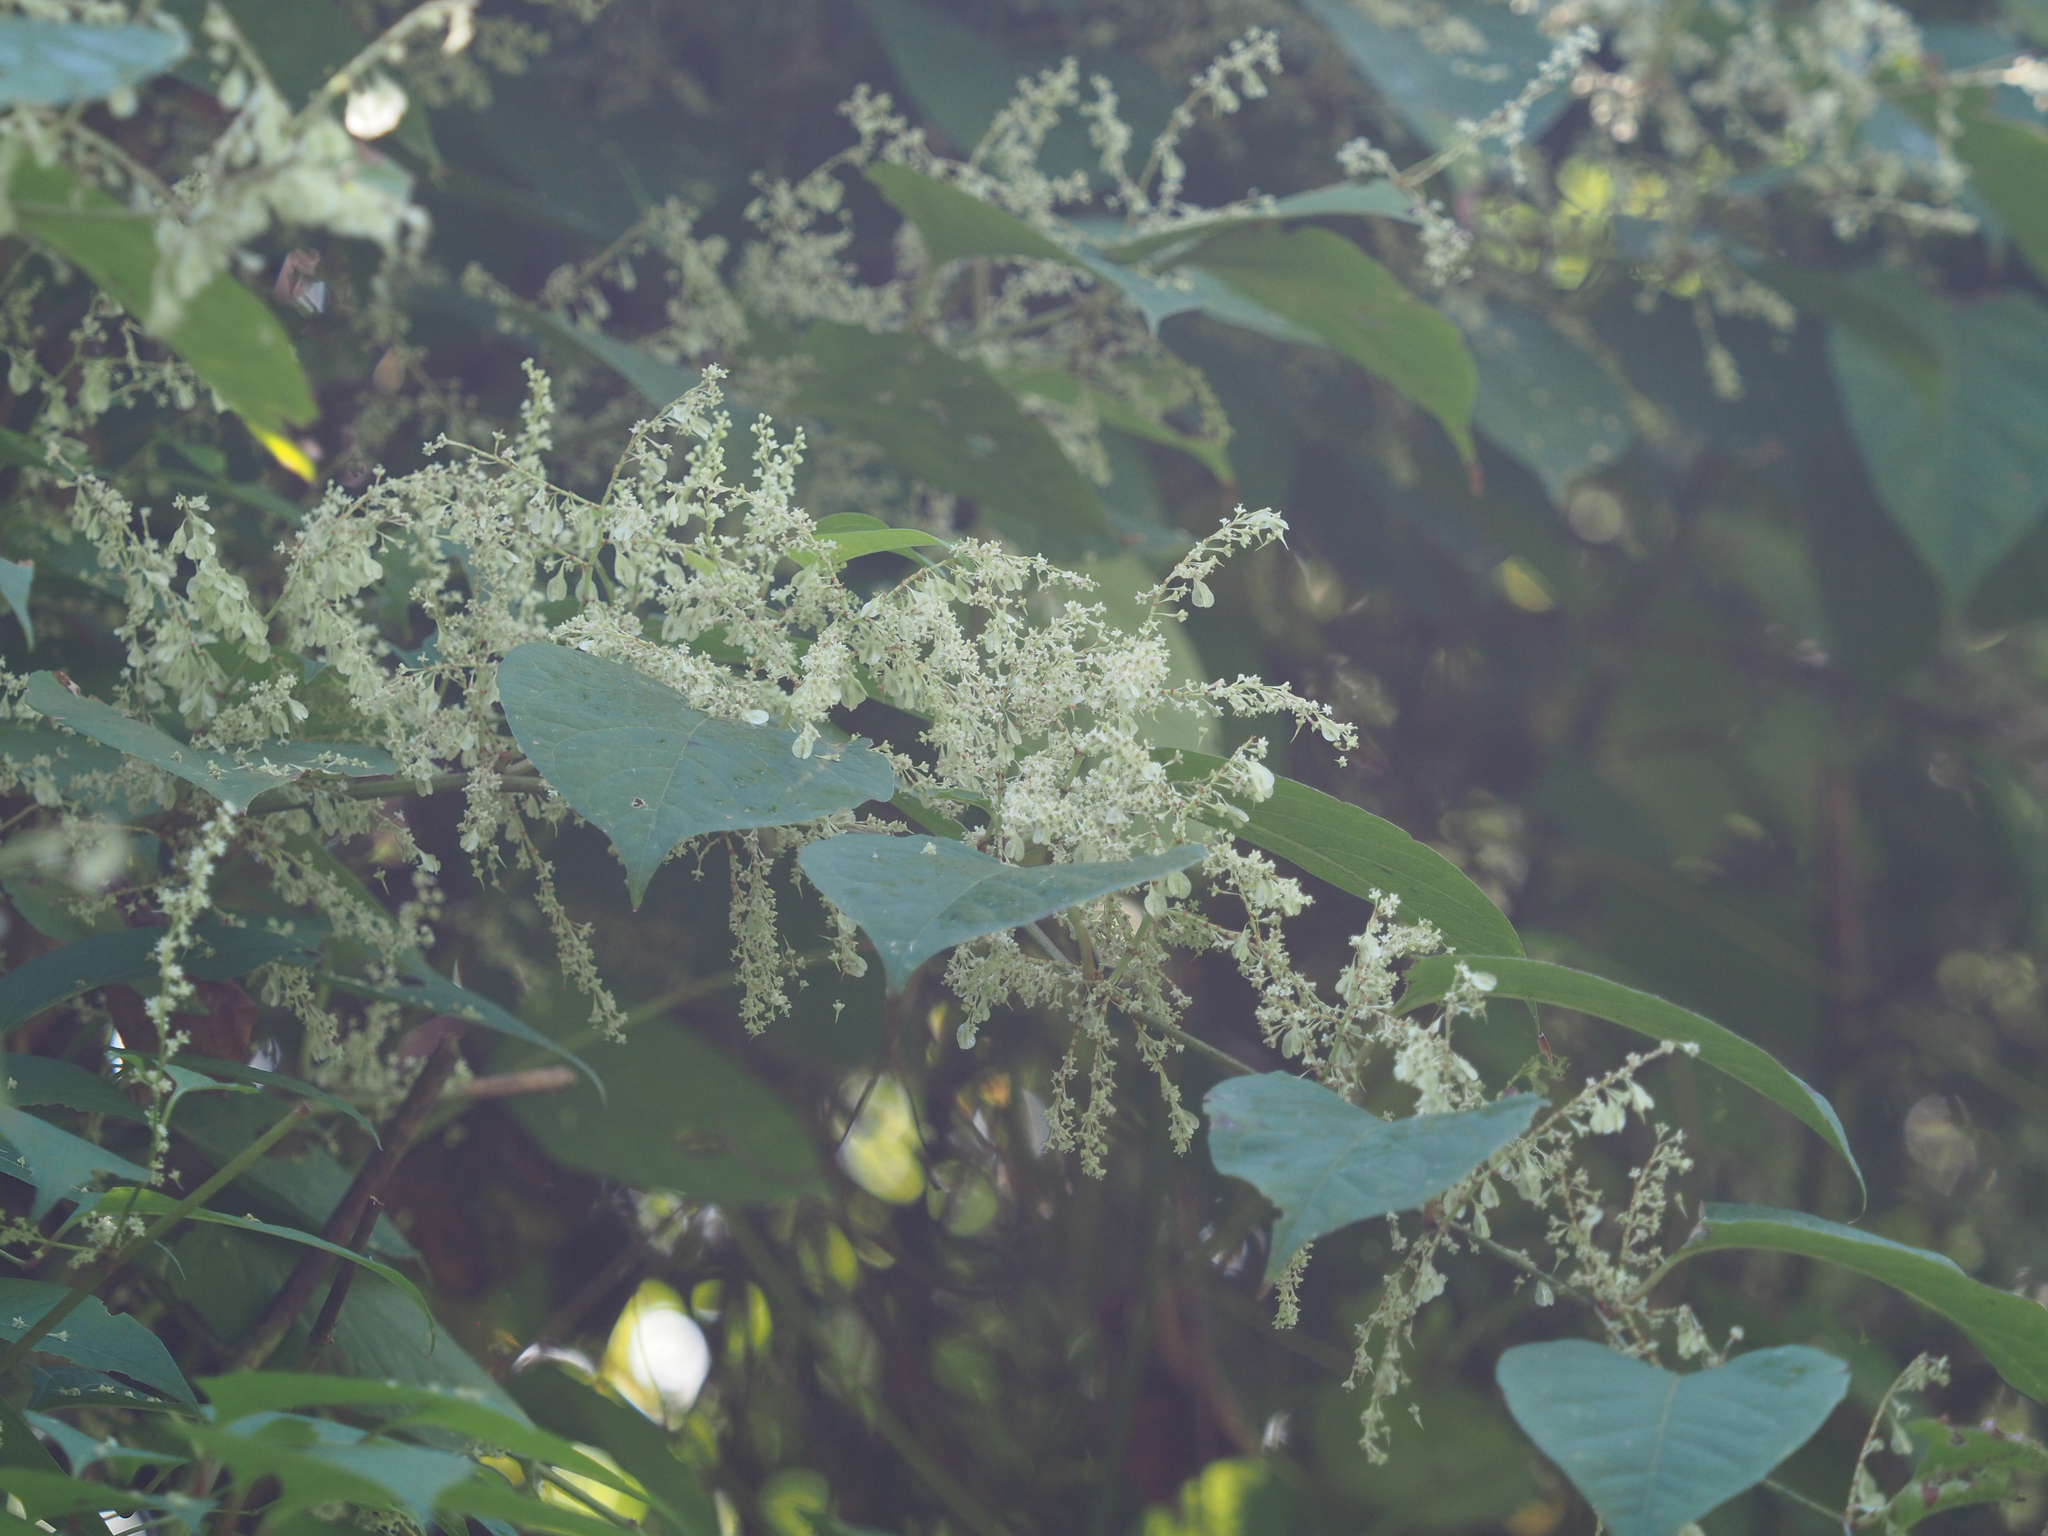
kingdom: Plantae
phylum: Tracheophyta
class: Magnoliopsida
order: Caryophyllales
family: Polygonaceae
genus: Reynoutria
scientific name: Reynoutria japonica
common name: Japanese knotweed
